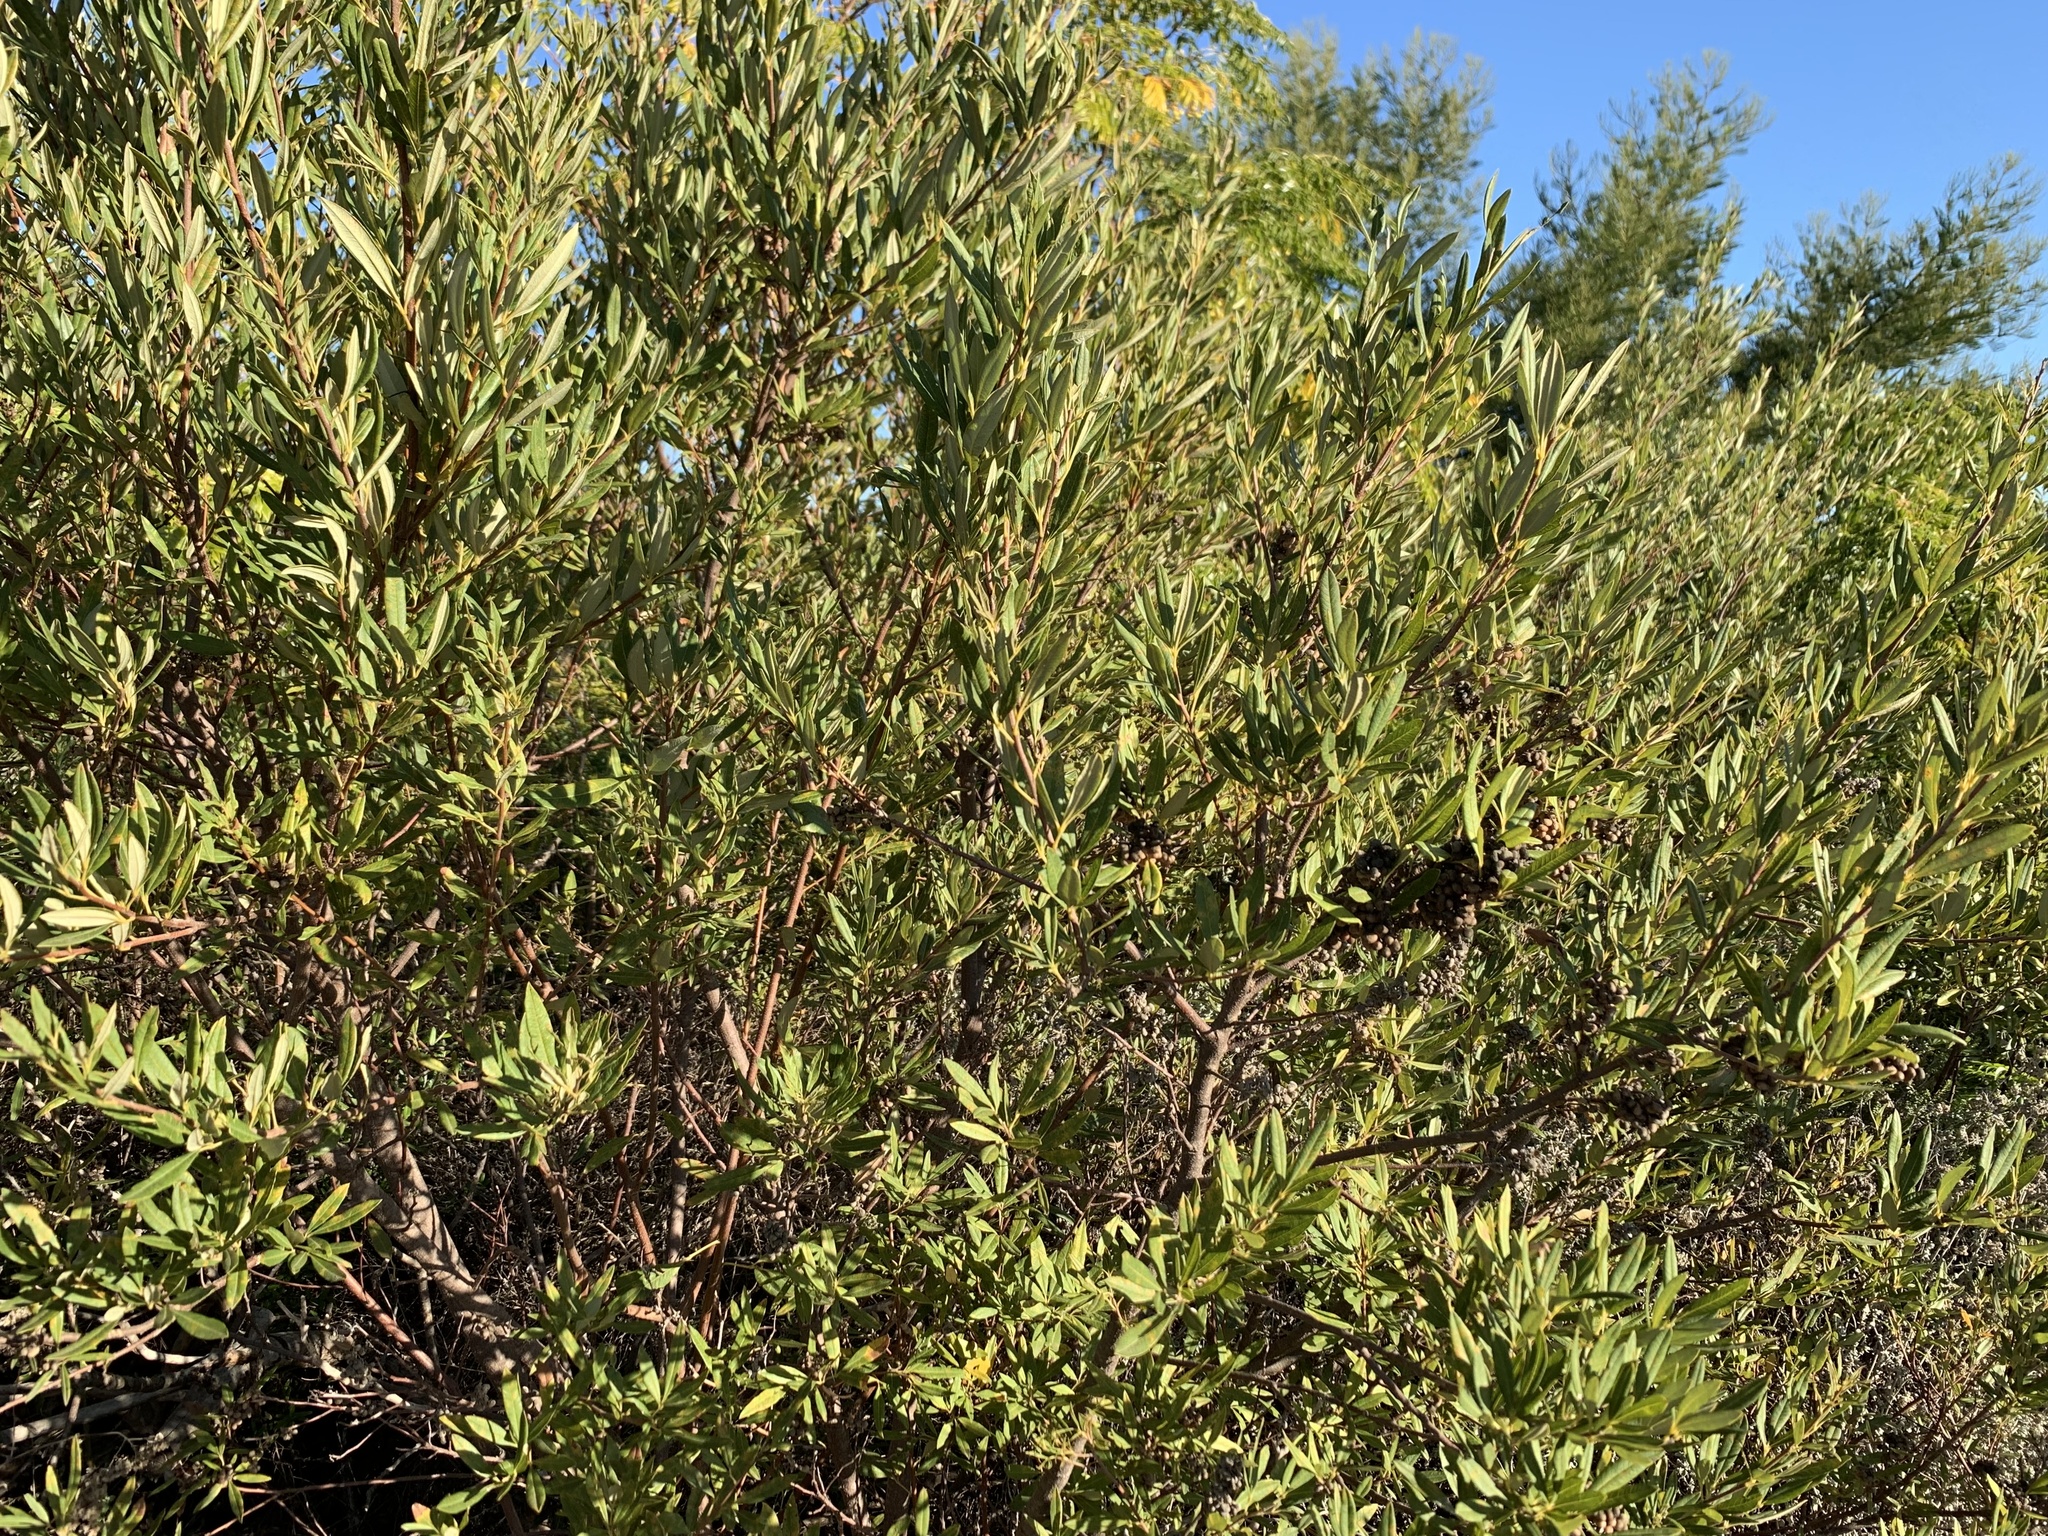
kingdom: Plantae
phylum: Tracheophyta
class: Magnoliopsida
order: Sapindales
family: Anacardiaceae
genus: Searsia
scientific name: Searsia angustifolia
